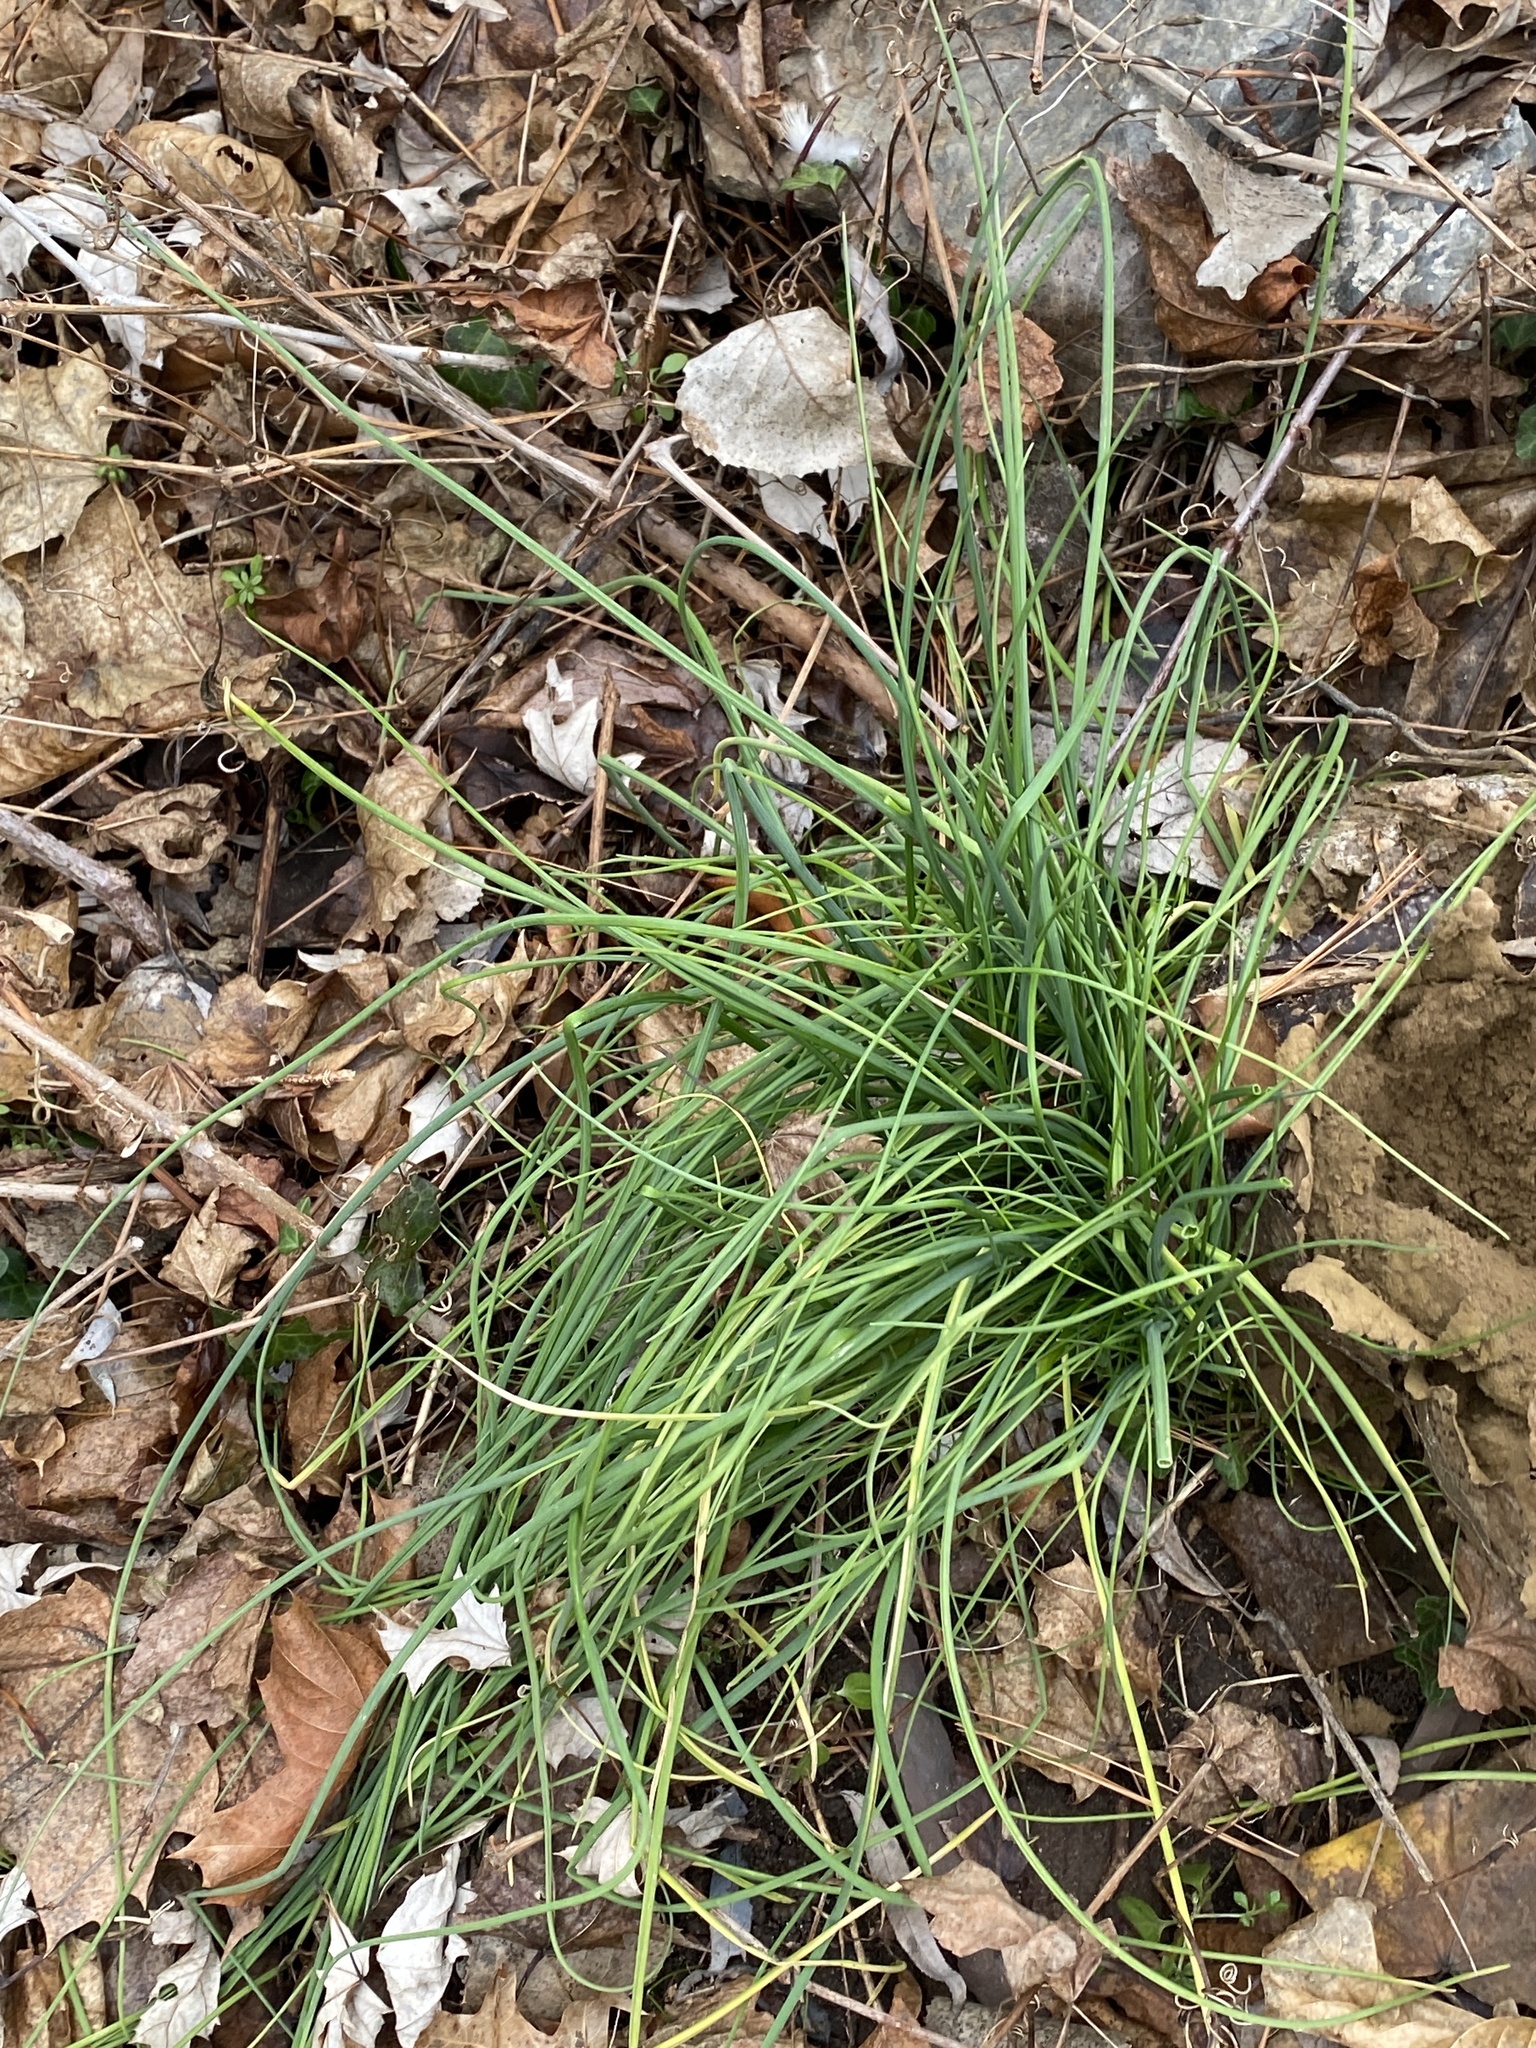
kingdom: Plantae
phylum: Tracheophyta
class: Liliopsida
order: Asparagales
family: Amaryllidaceae
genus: Allium
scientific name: Allium vineale
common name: Crow garlic
